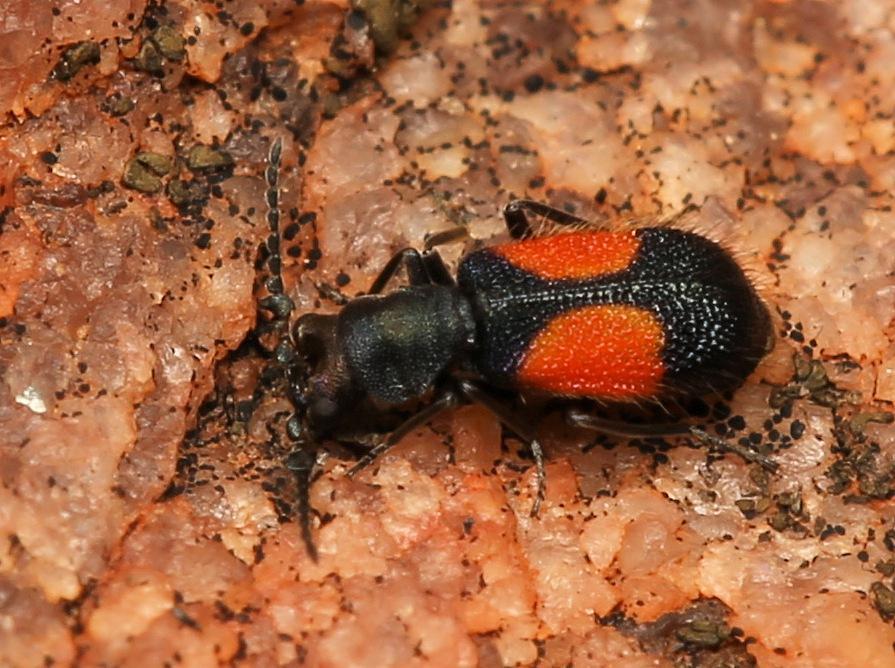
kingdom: Animalia
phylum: Arthropoda
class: Insecta
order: Coleoptera
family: Melyridae
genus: Matopius
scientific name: Matopius
